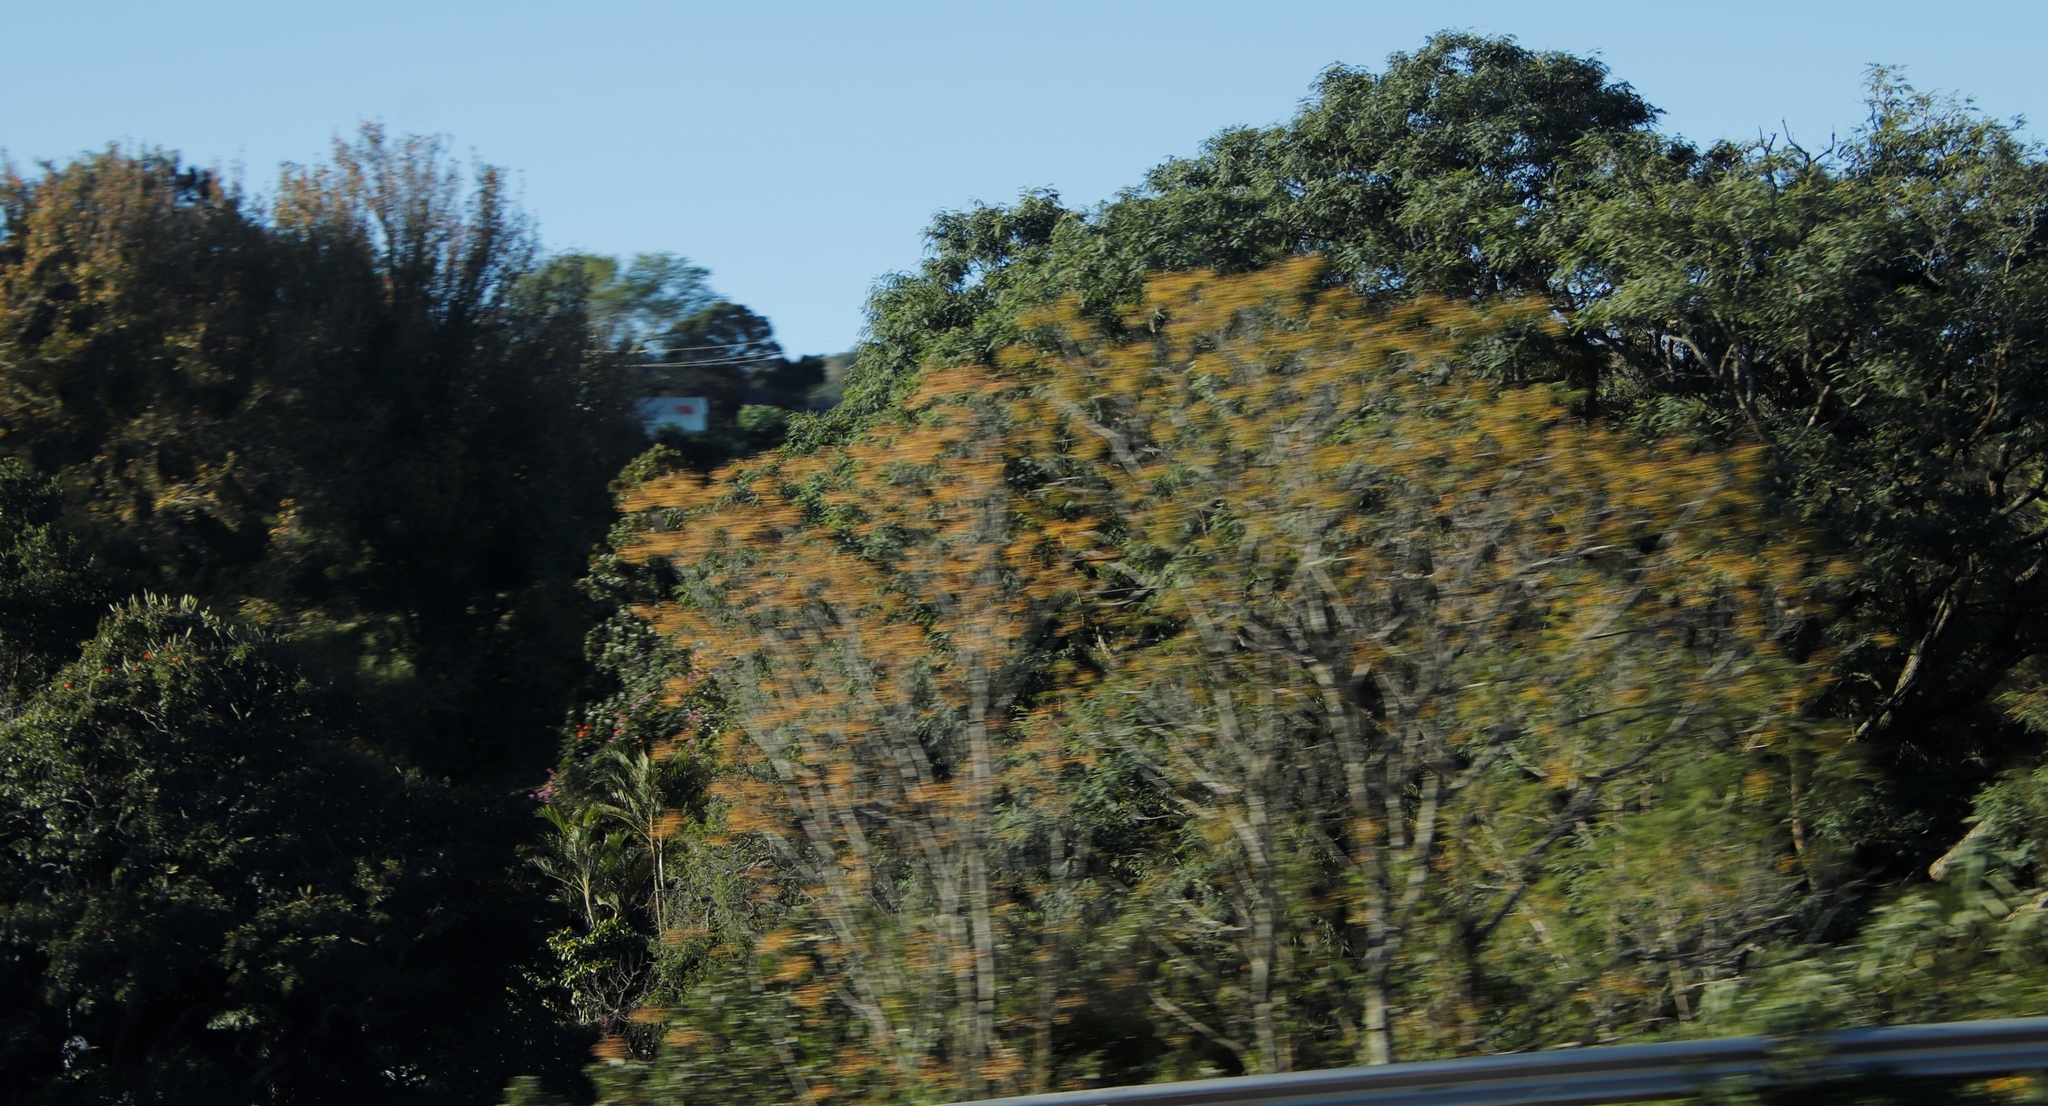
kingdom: Plantae
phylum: Tracheophyta
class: Magnoliopsida
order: Sapindales
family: Meliaceae
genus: Melia
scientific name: Melia azedarach
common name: Chinaberrytree
